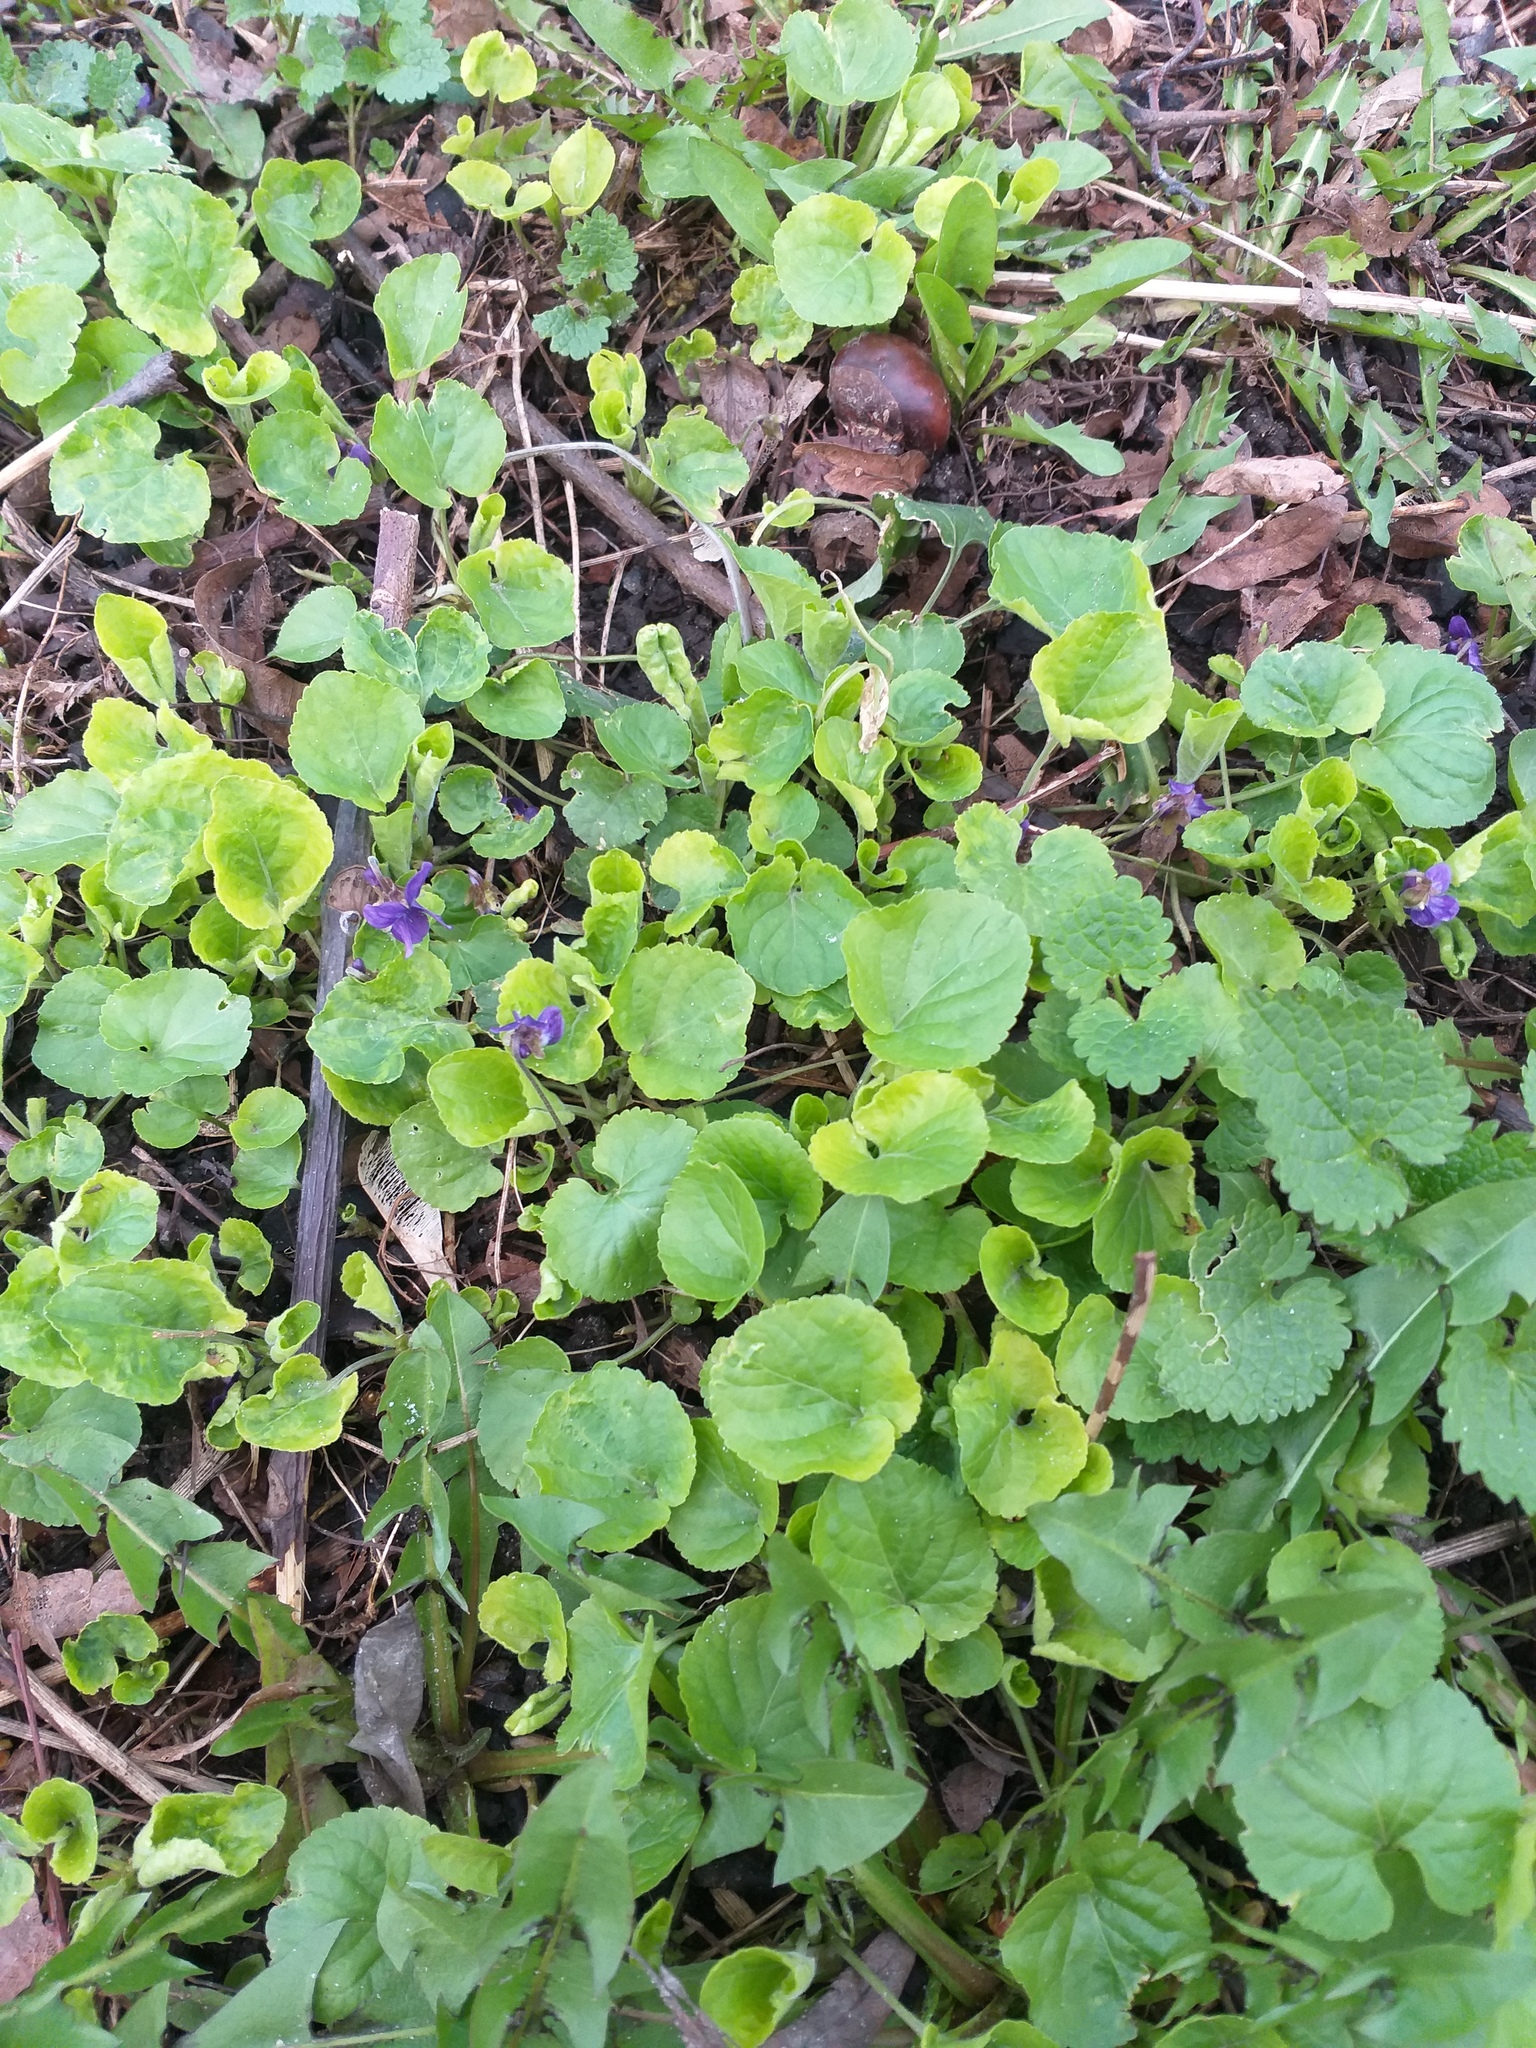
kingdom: Plantae
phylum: Tracheophyta
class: Magnoliopsida
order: Malpighiales
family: Violaceae
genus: Viola
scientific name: Viola odorata
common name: Sweet violet
